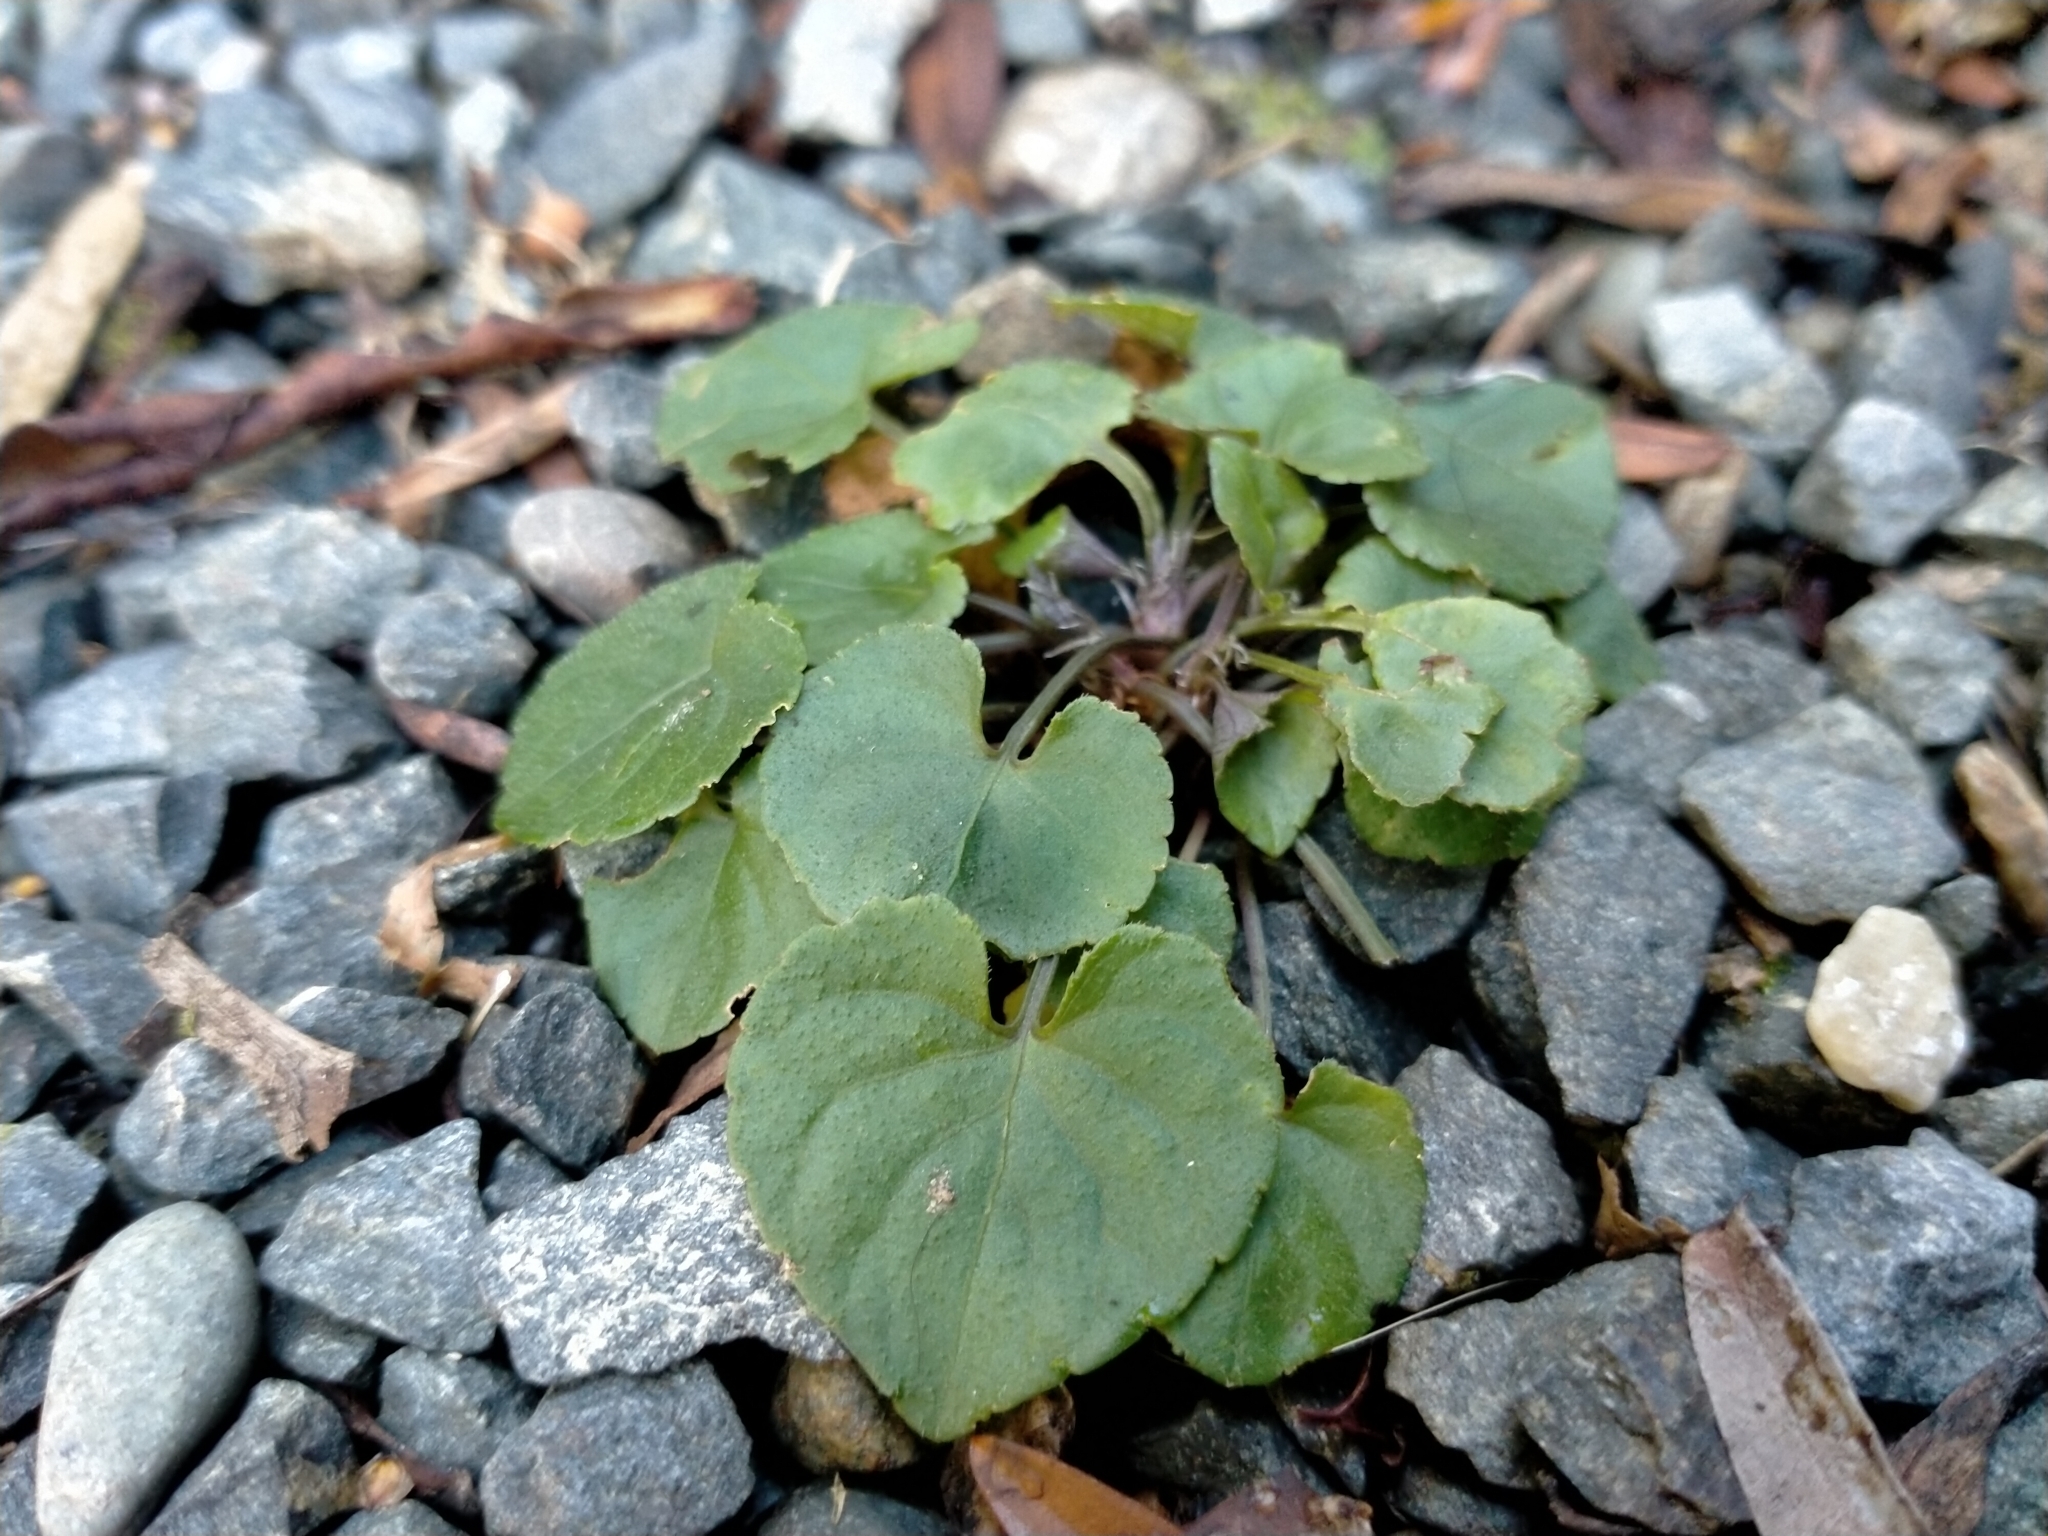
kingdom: Plantae
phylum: Tracheophyta
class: Magnoliopsida
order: Malpighiales
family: Violaceae
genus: Viola
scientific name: Viola riviniana
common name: Common dog-violet
